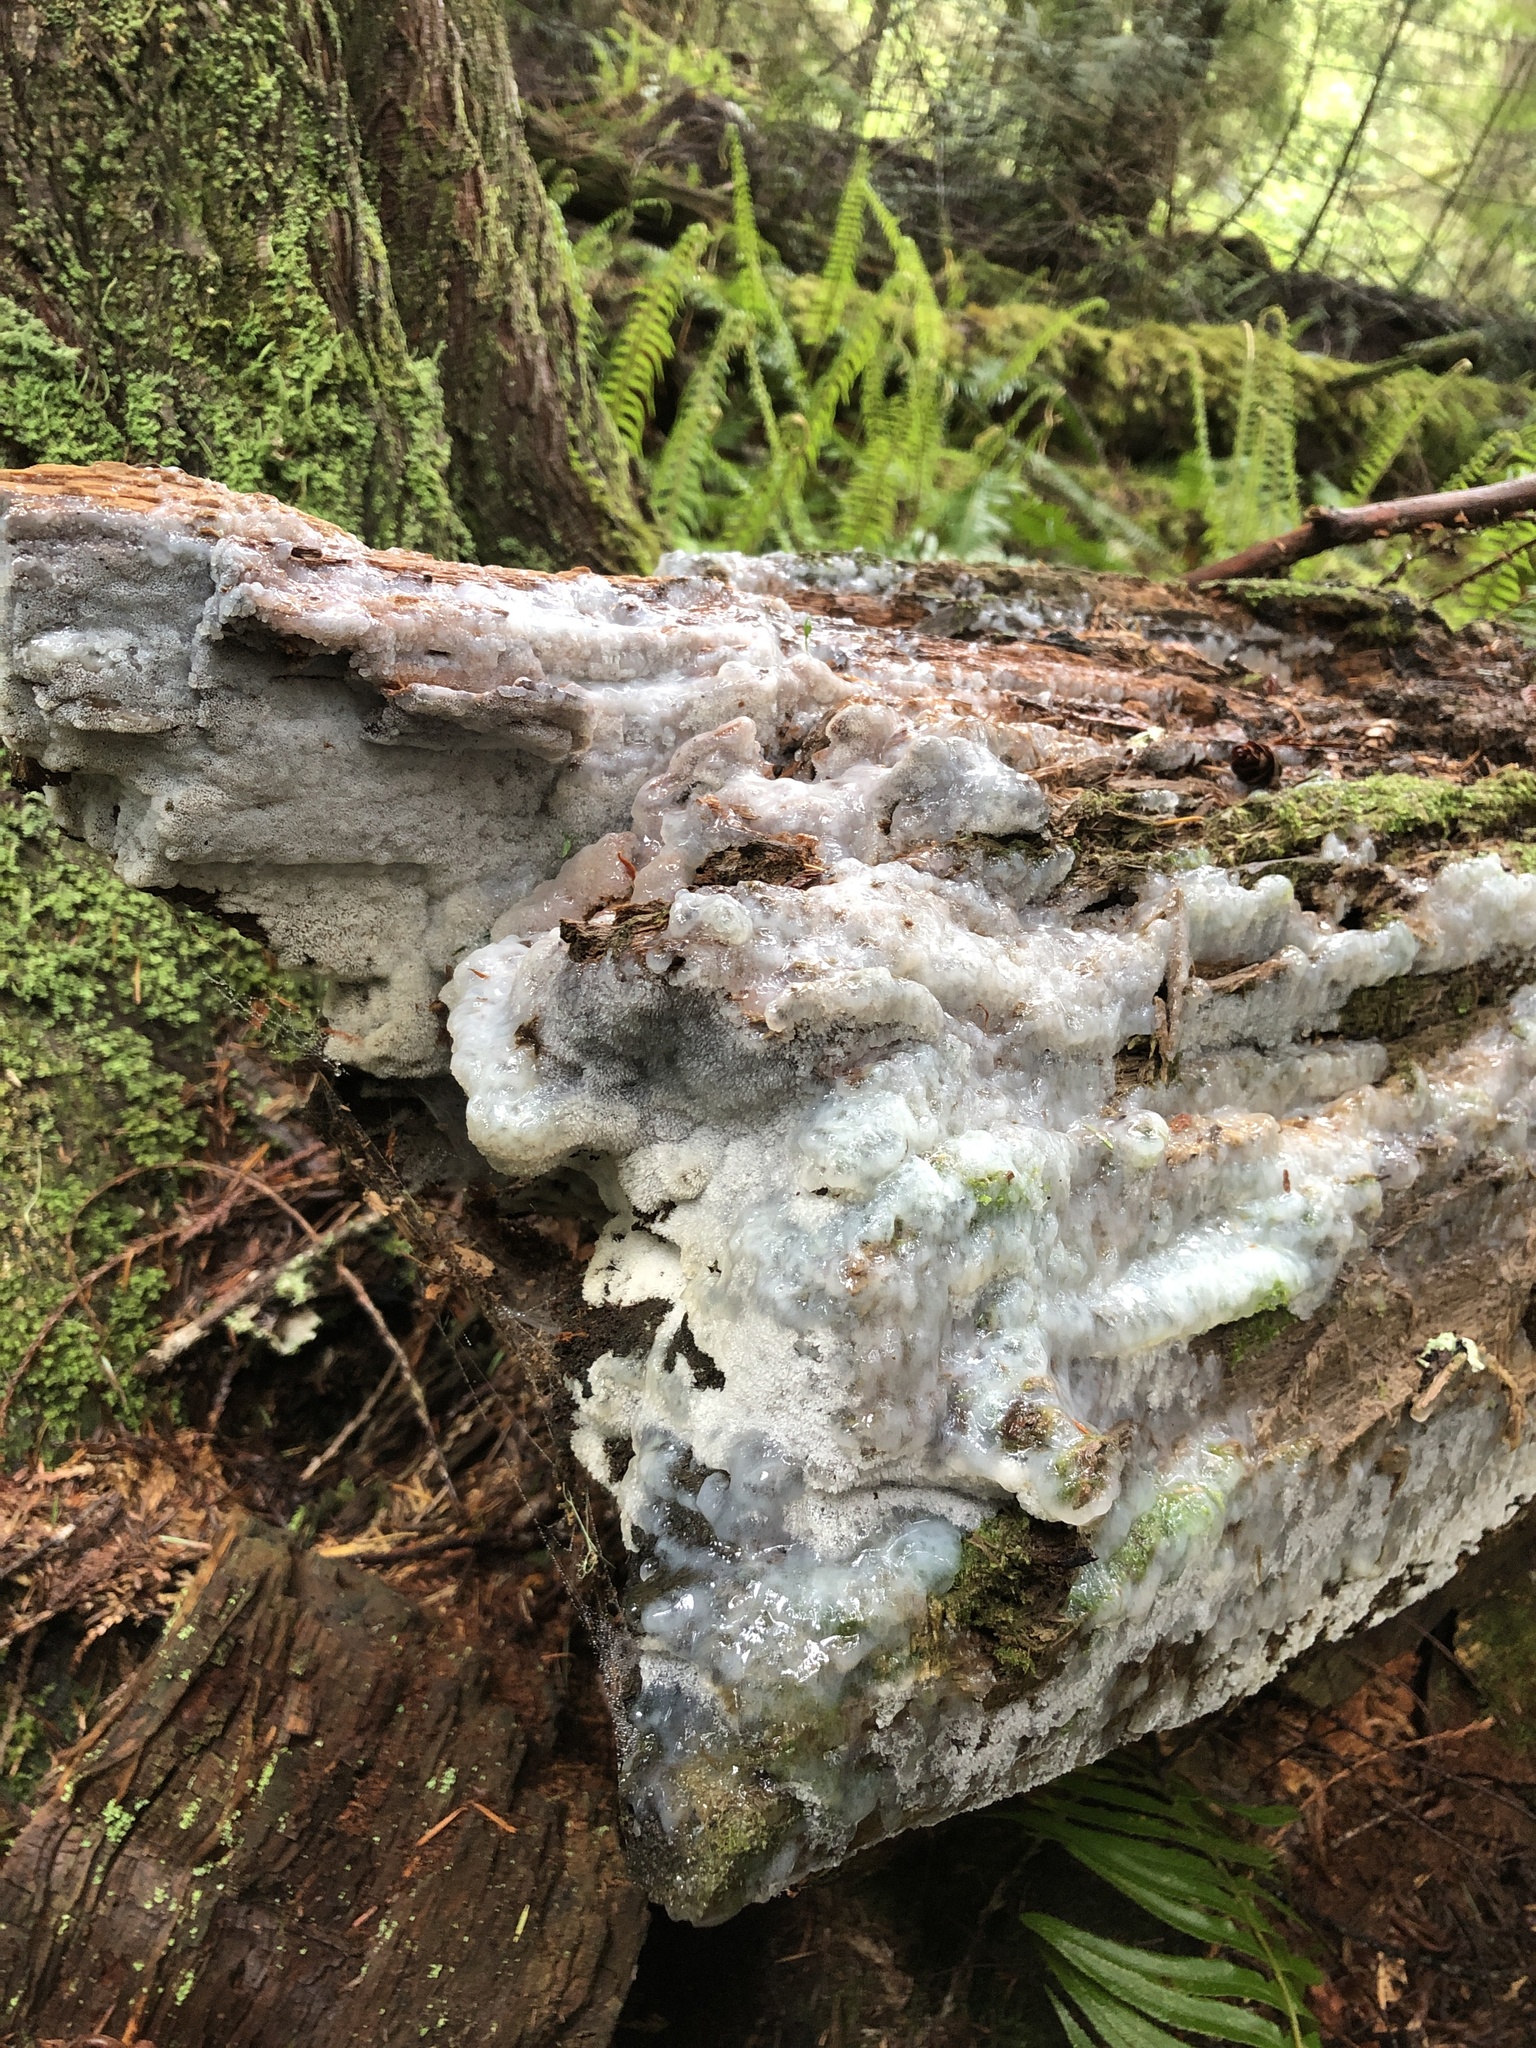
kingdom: Protozoa
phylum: Mycetozoa
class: Protosteliomycetes
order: Ceratiomyxales
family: Ceratiomyxaceae
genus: Ceratiomyxa
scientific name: Ceratiomyxa fruticulosa
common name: Honeycomb coral slime mold
